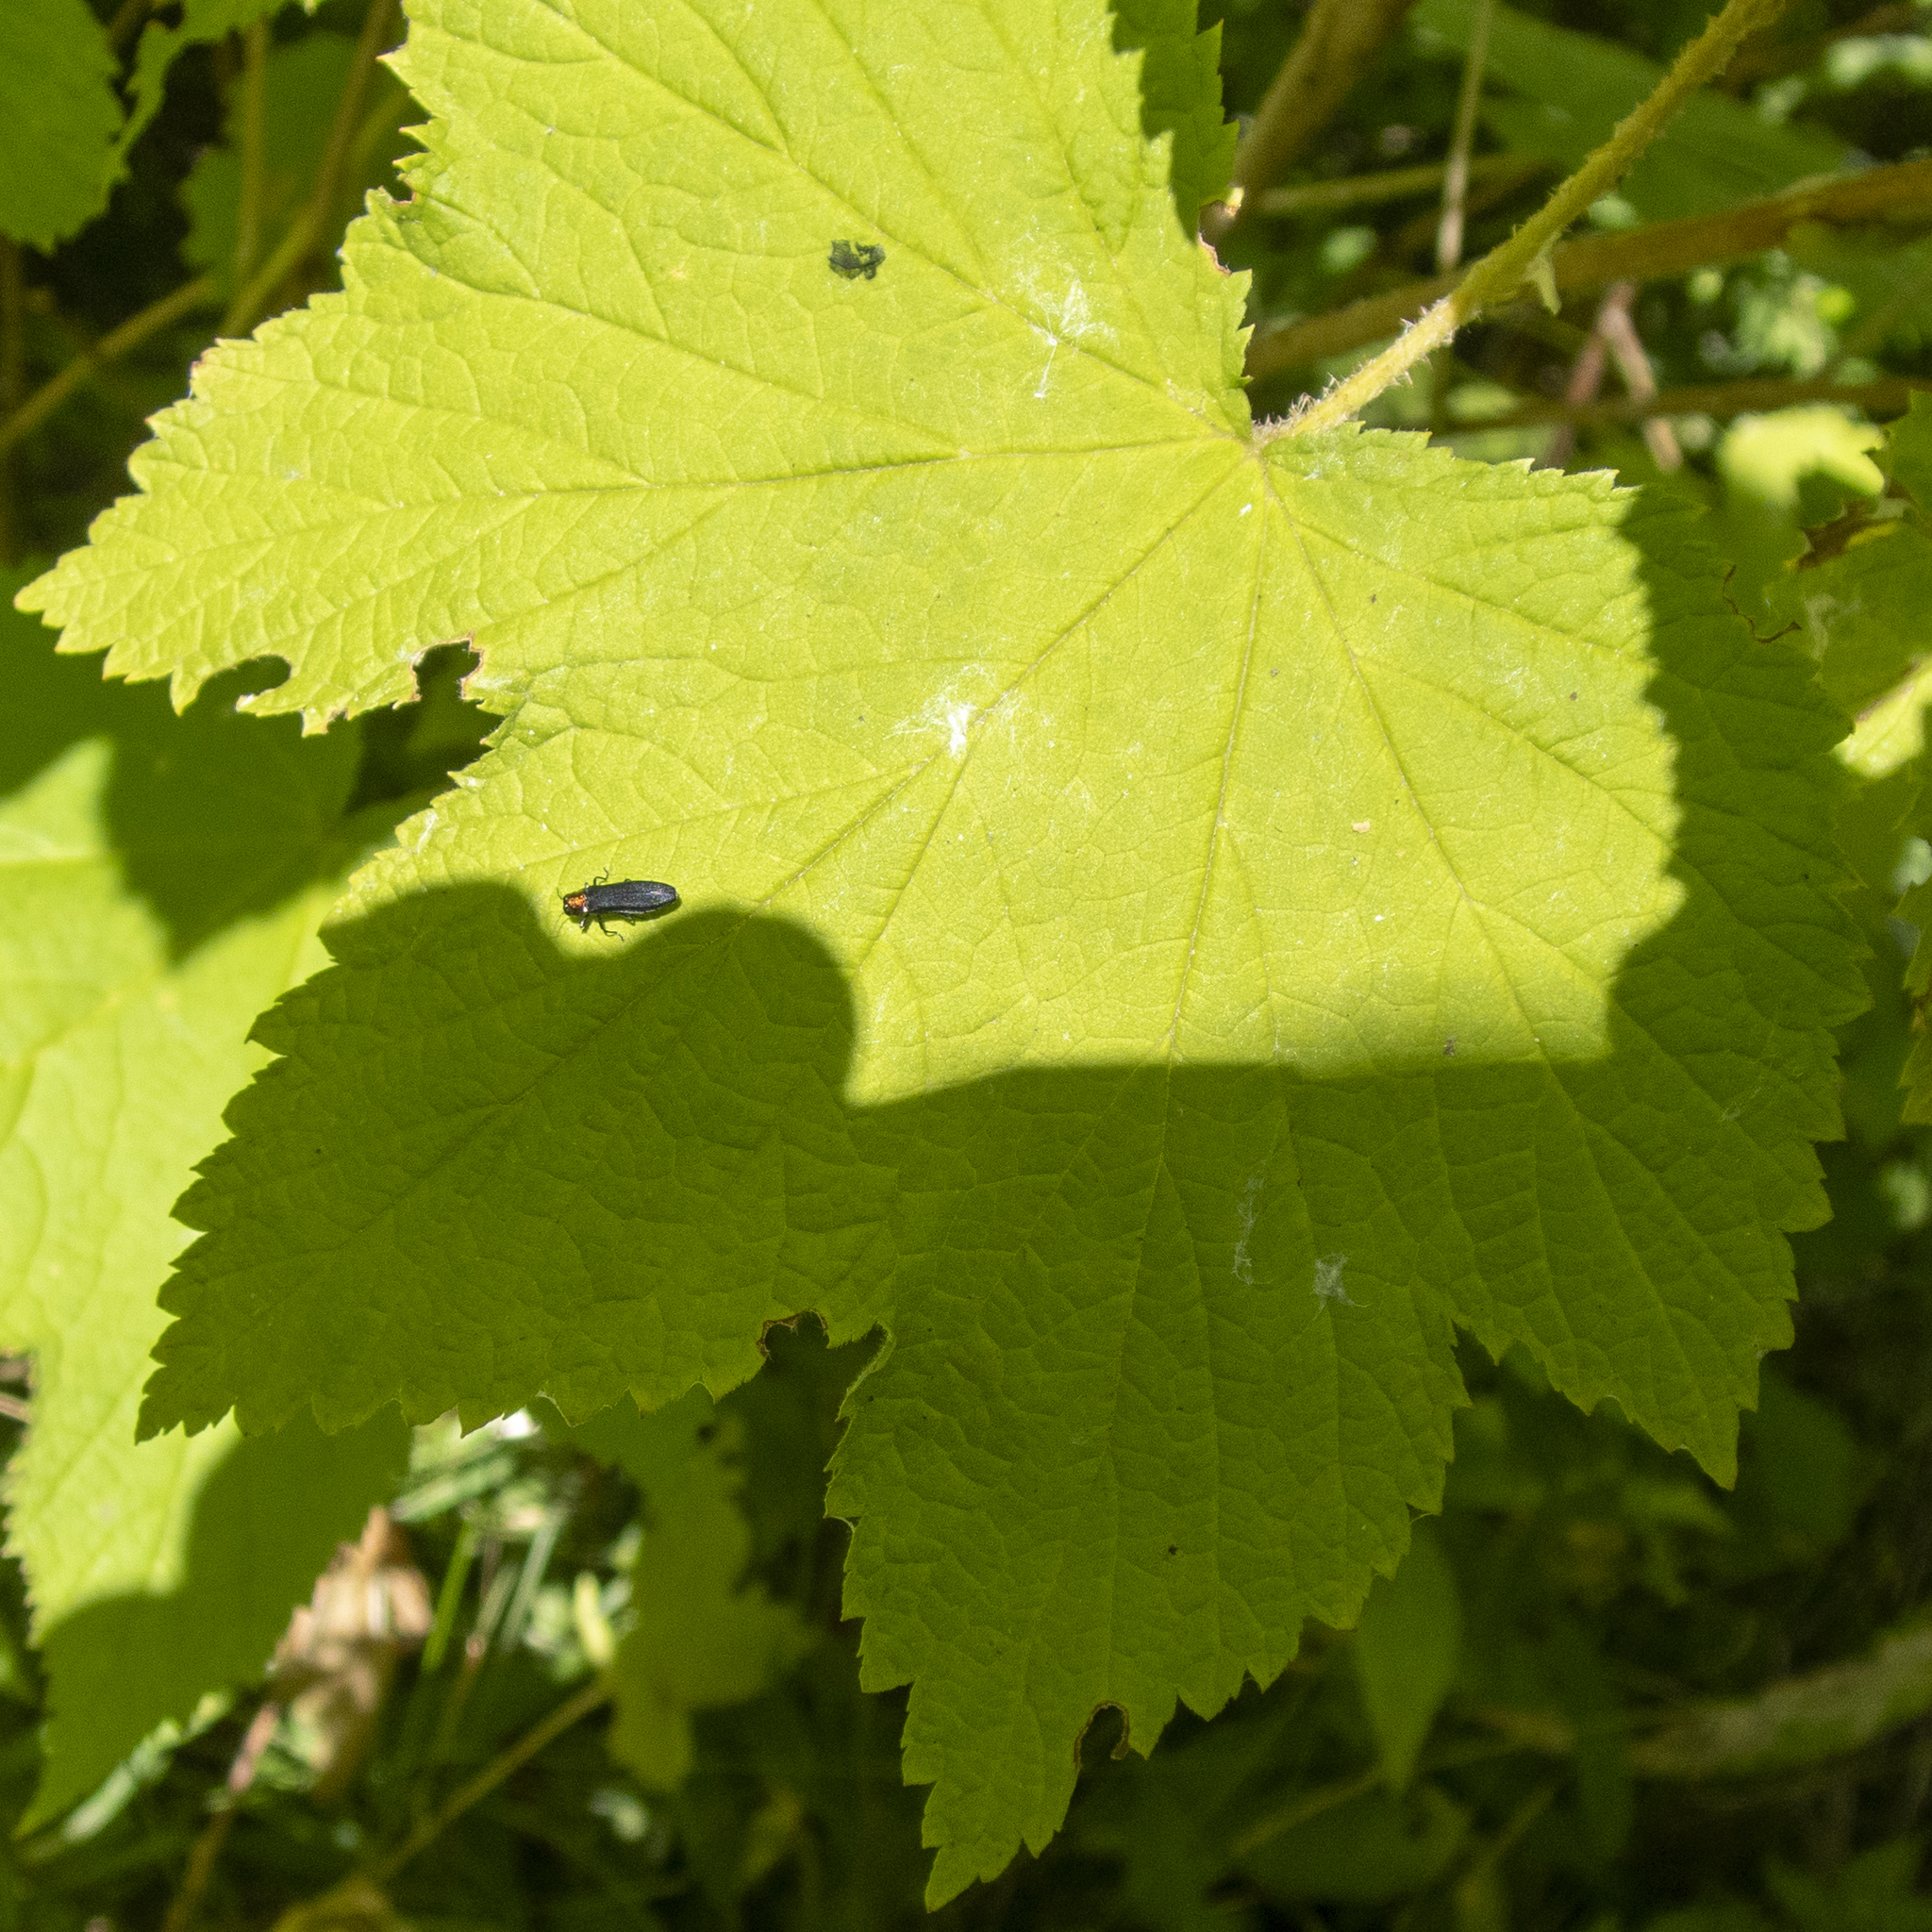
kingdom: Animalia
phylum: Arthropoda
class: Insecta
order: Coleoptera
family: Buprestidae
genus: Agrilus
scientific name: Agrilus ruficollis
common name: Red-necked cane borer beetle
